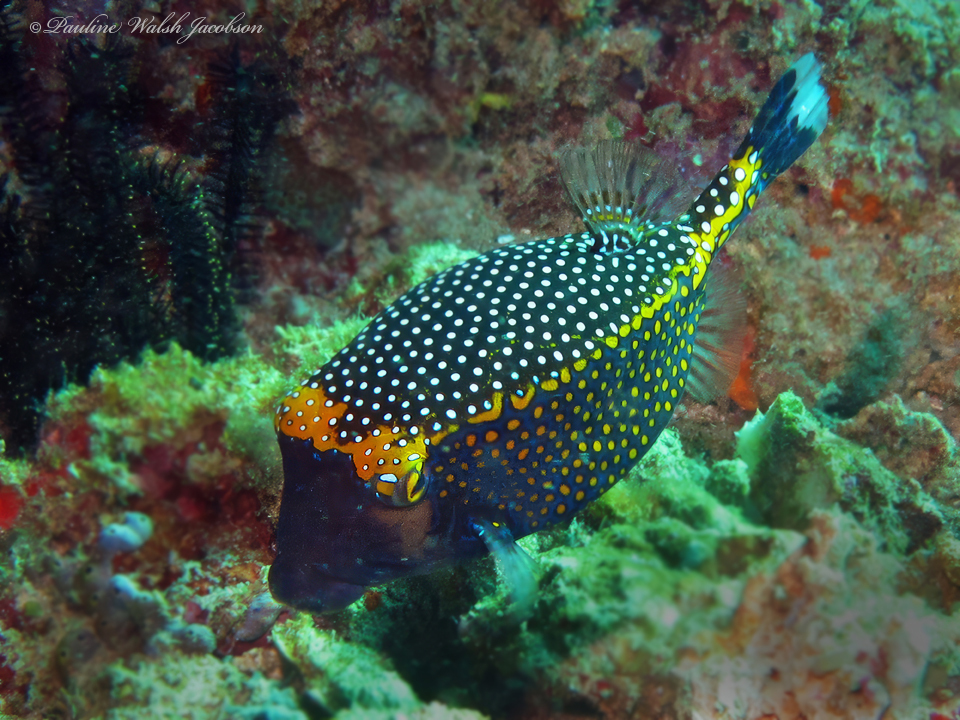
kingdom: Animalia
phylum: Chordata
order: Tetraodontiformes
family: Ostraciidae
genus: Ostracion
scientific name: Ostracion meleagris
